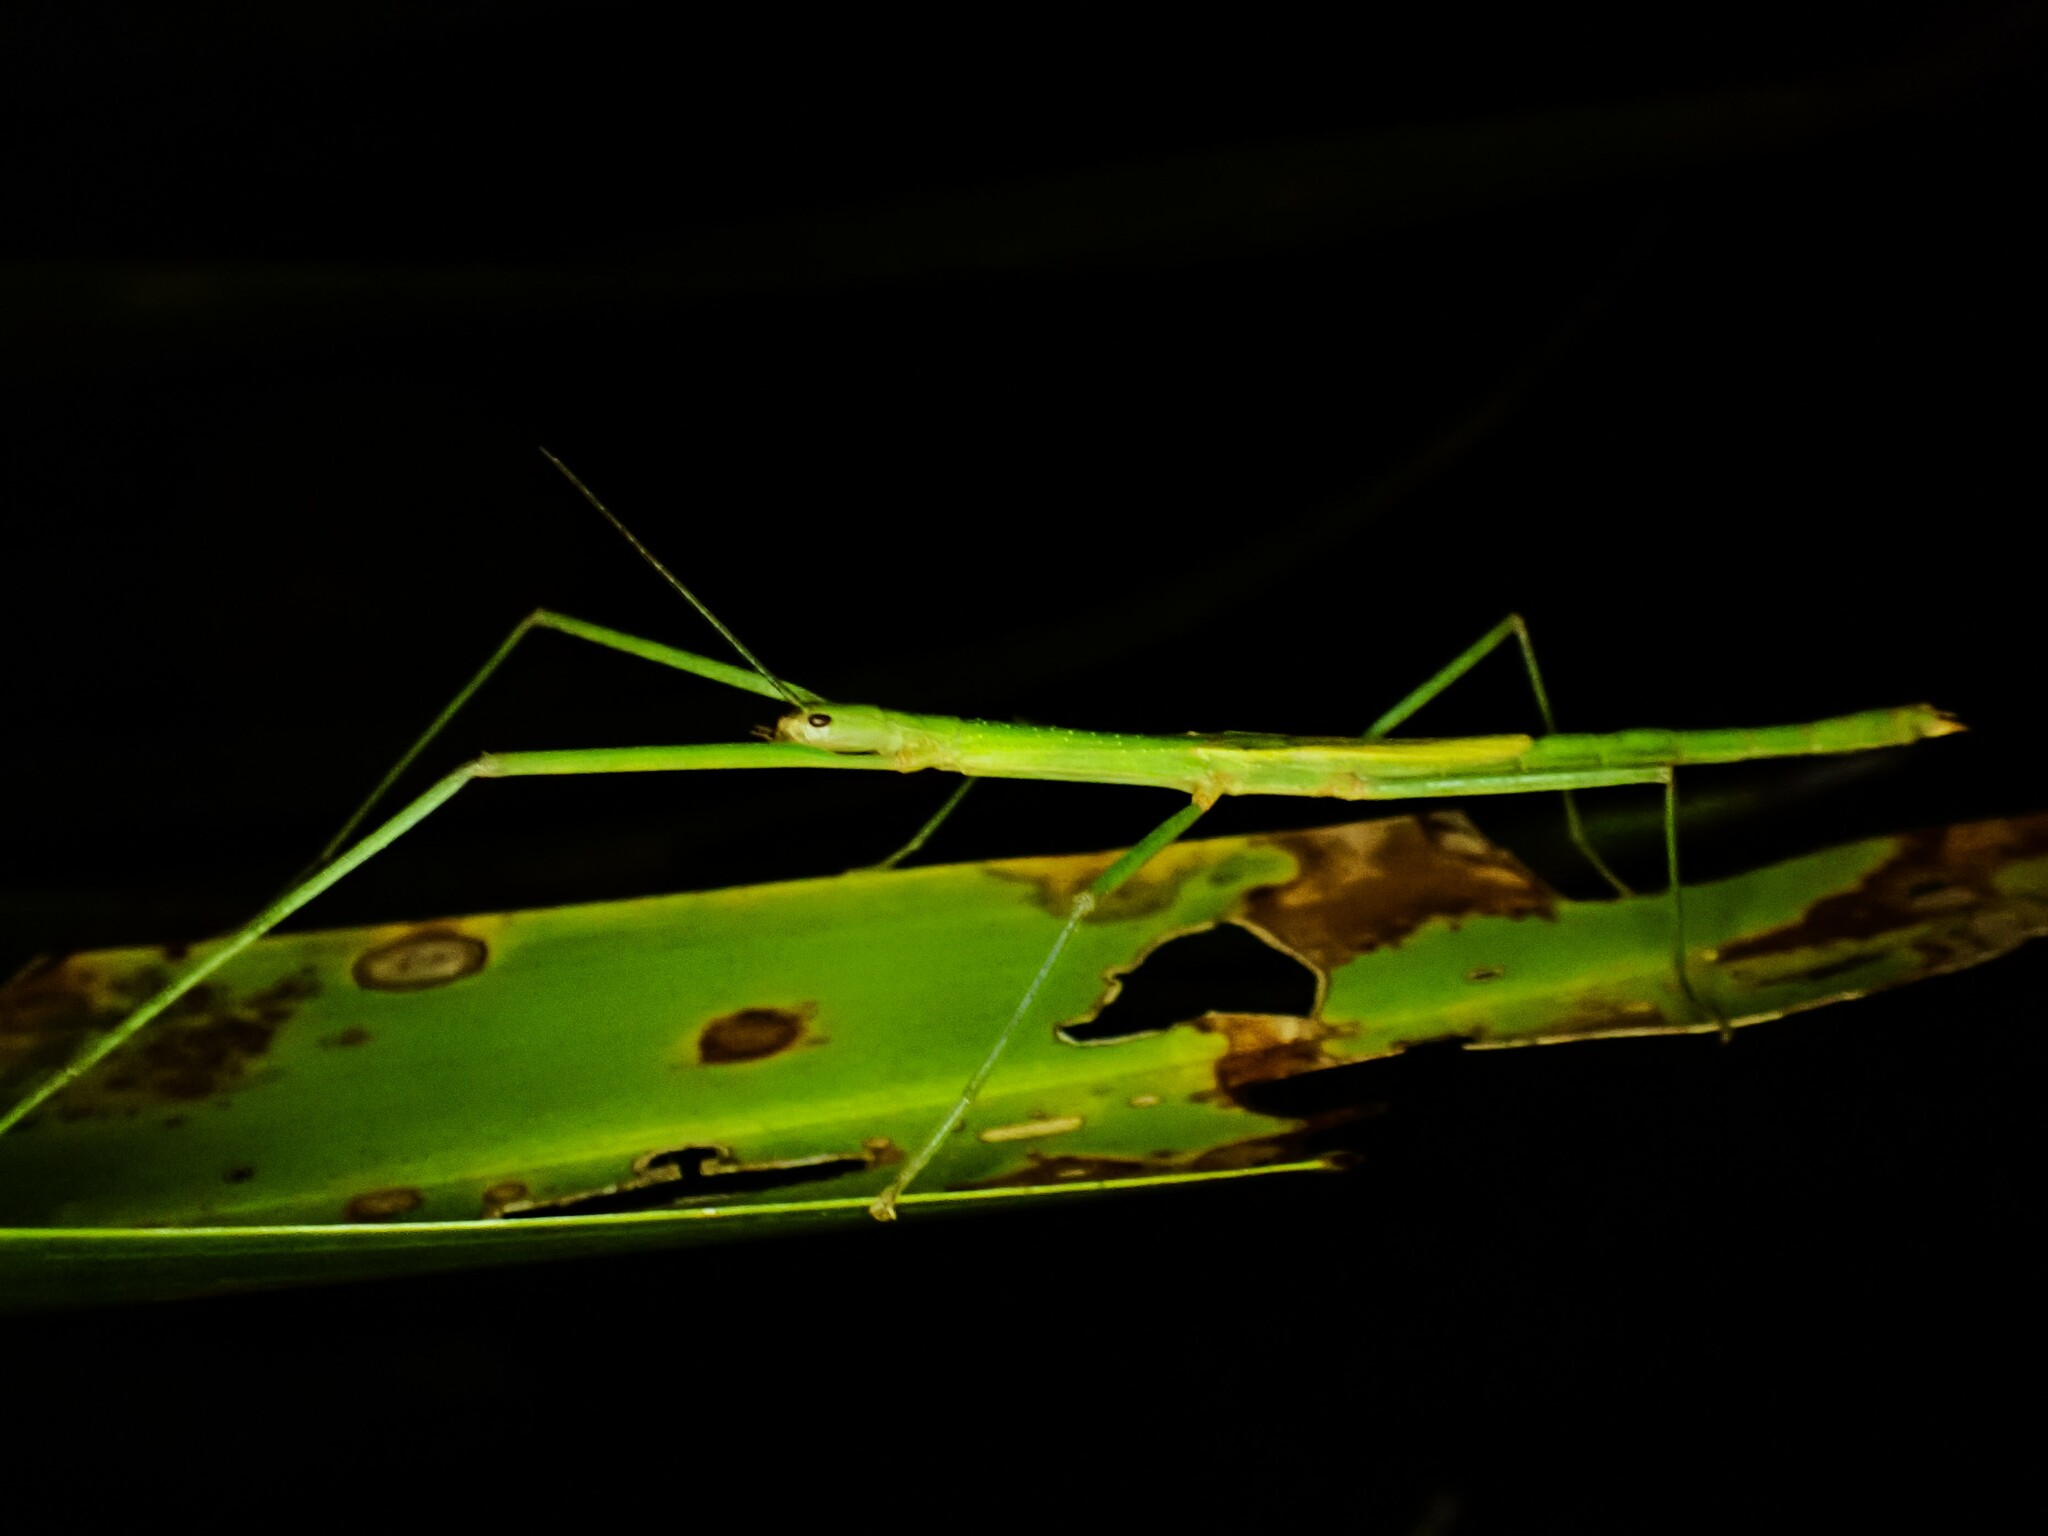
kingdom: Animalia
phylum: Arthropoda
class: Insecta
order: Phasmida
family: Phasmatidae
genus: Graeffea
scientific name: Graeffea crouanii
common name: Coconut stick insect
